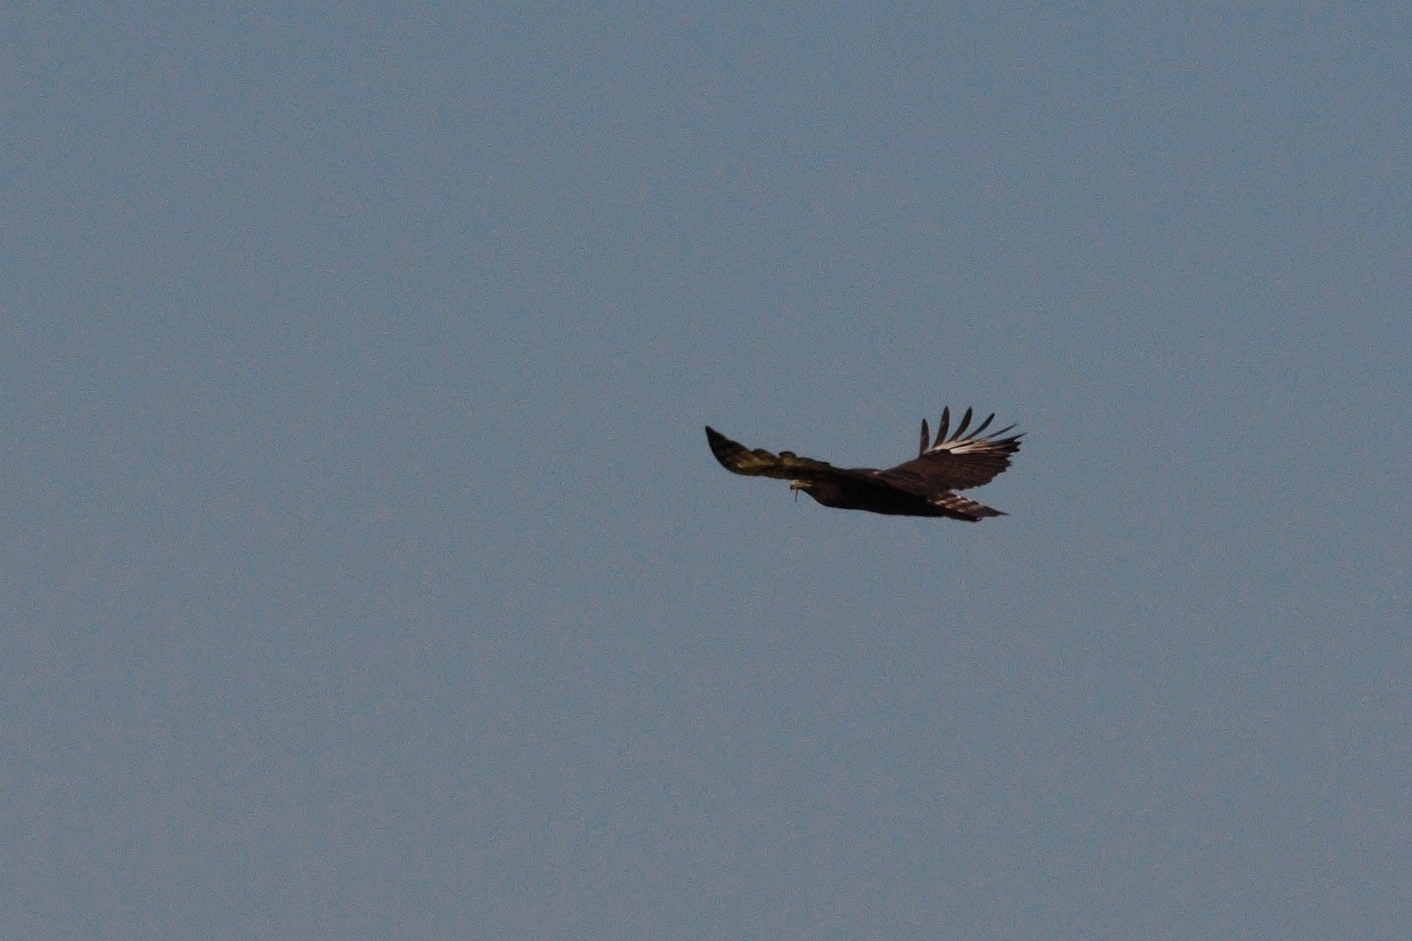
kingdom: Animalia
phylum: Chordata
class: Aves
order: Accipitriformes
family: Accipitridae
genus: Lophaetus
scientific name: Lophaetus occipitalis
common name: Long-crested eagle
